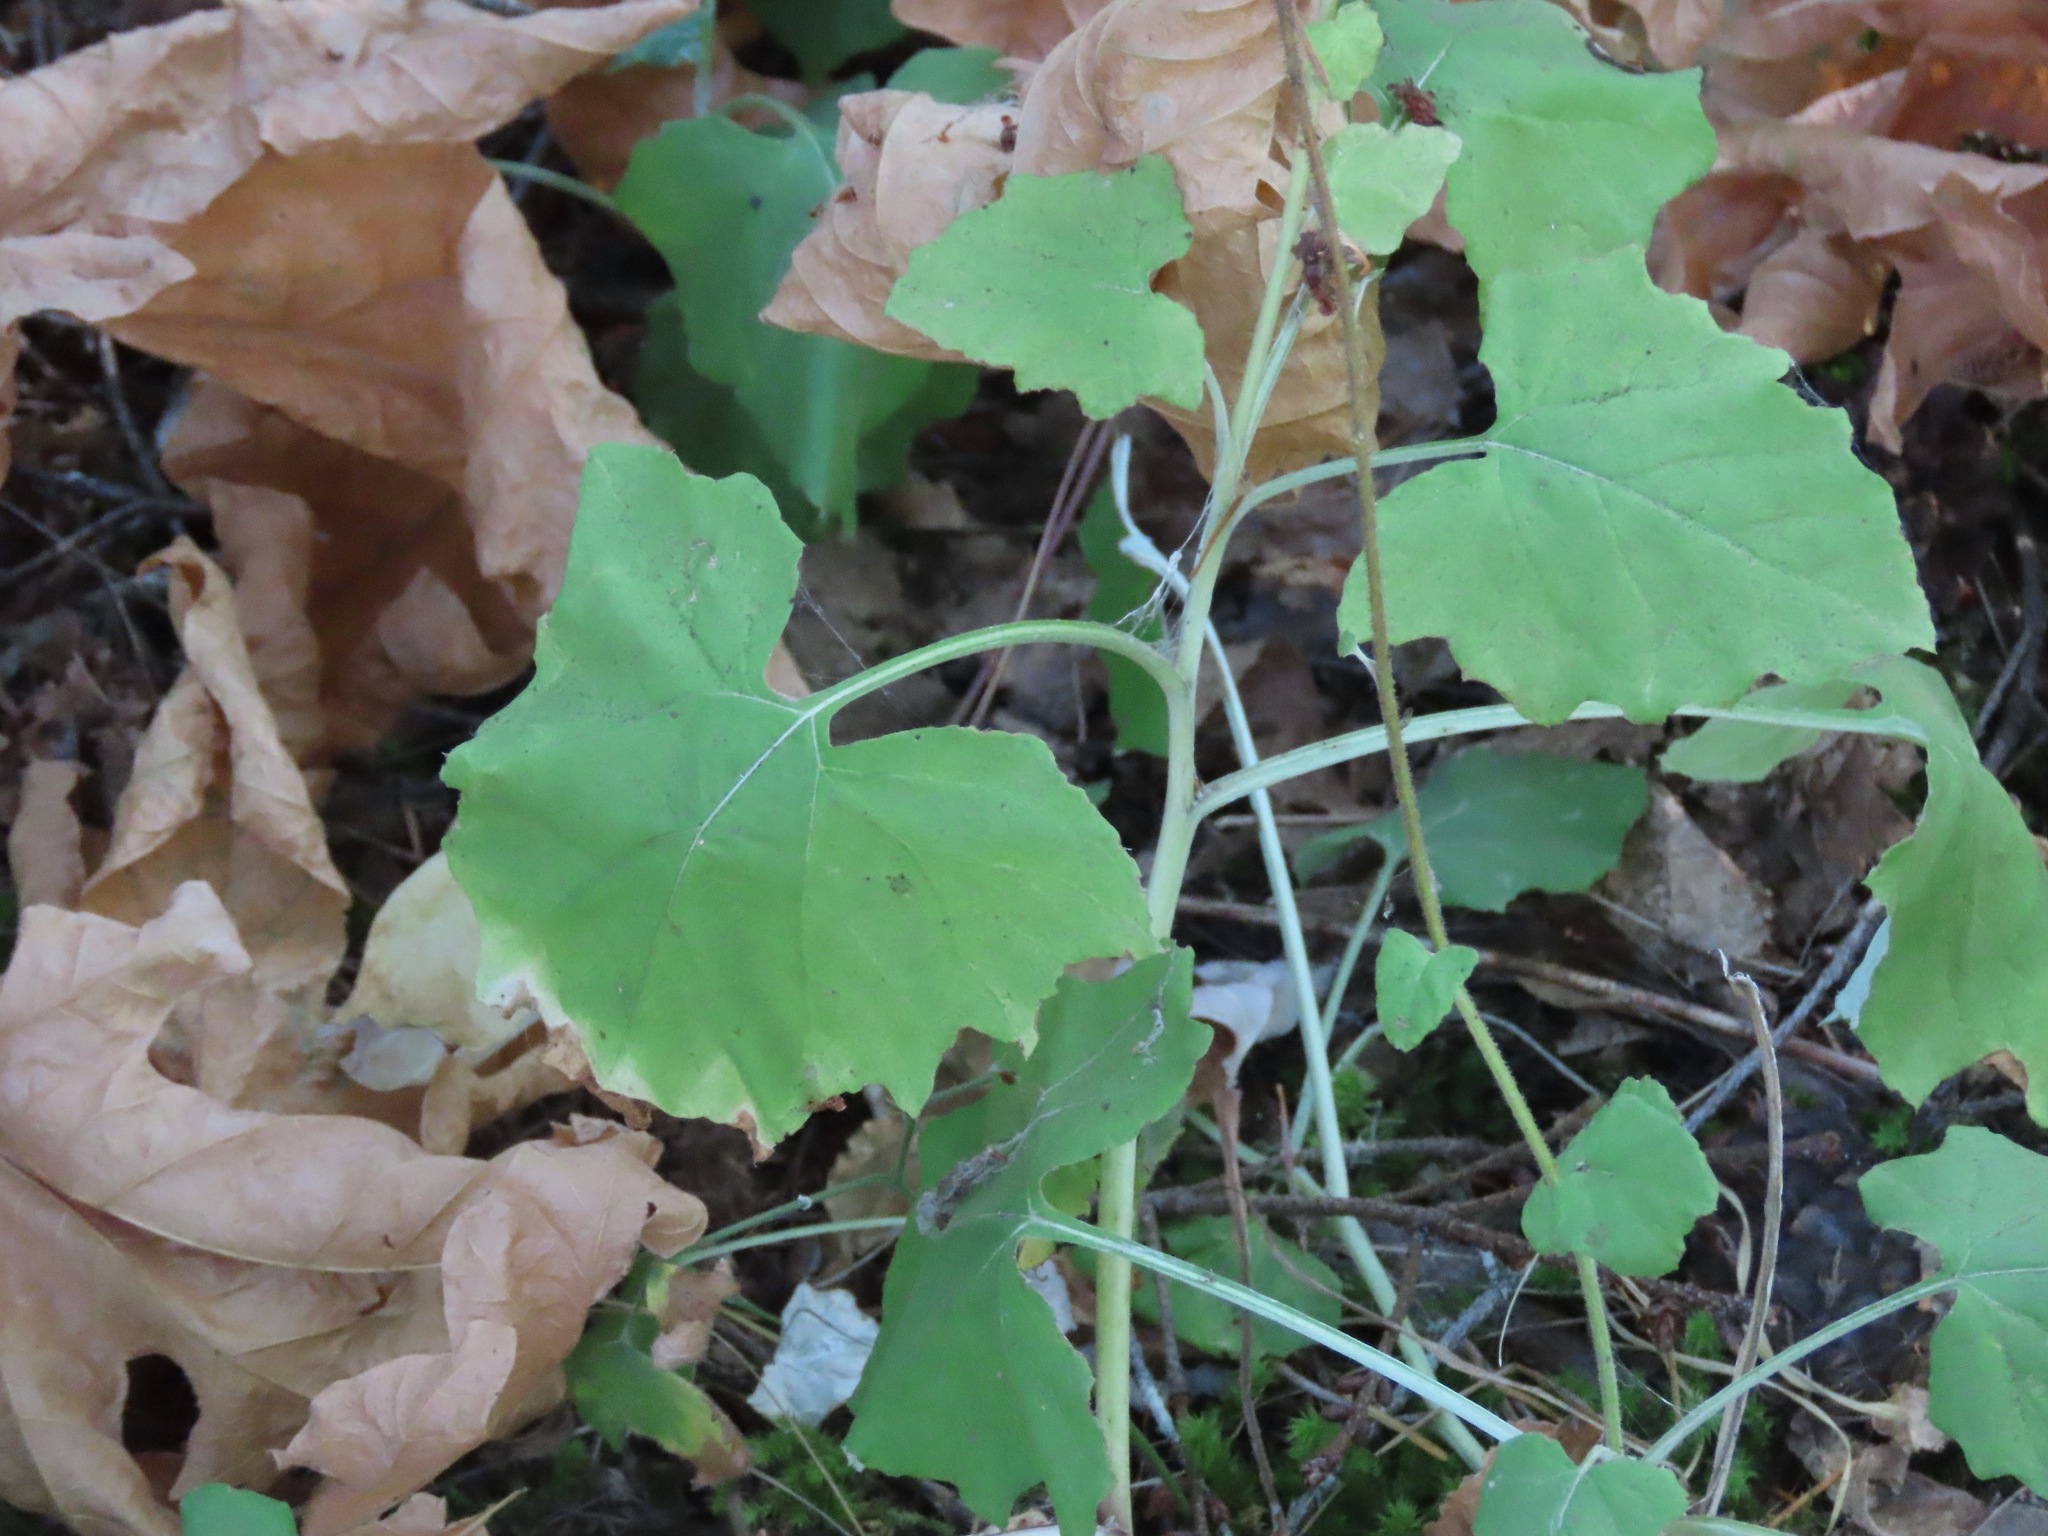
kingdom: Plantae
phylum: Tracheophyta
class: Magnoliopsida
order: Asterales
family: Asteraceae
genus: Adenocaulon
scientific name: Adenocaulon bicolor
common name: Trailplant
